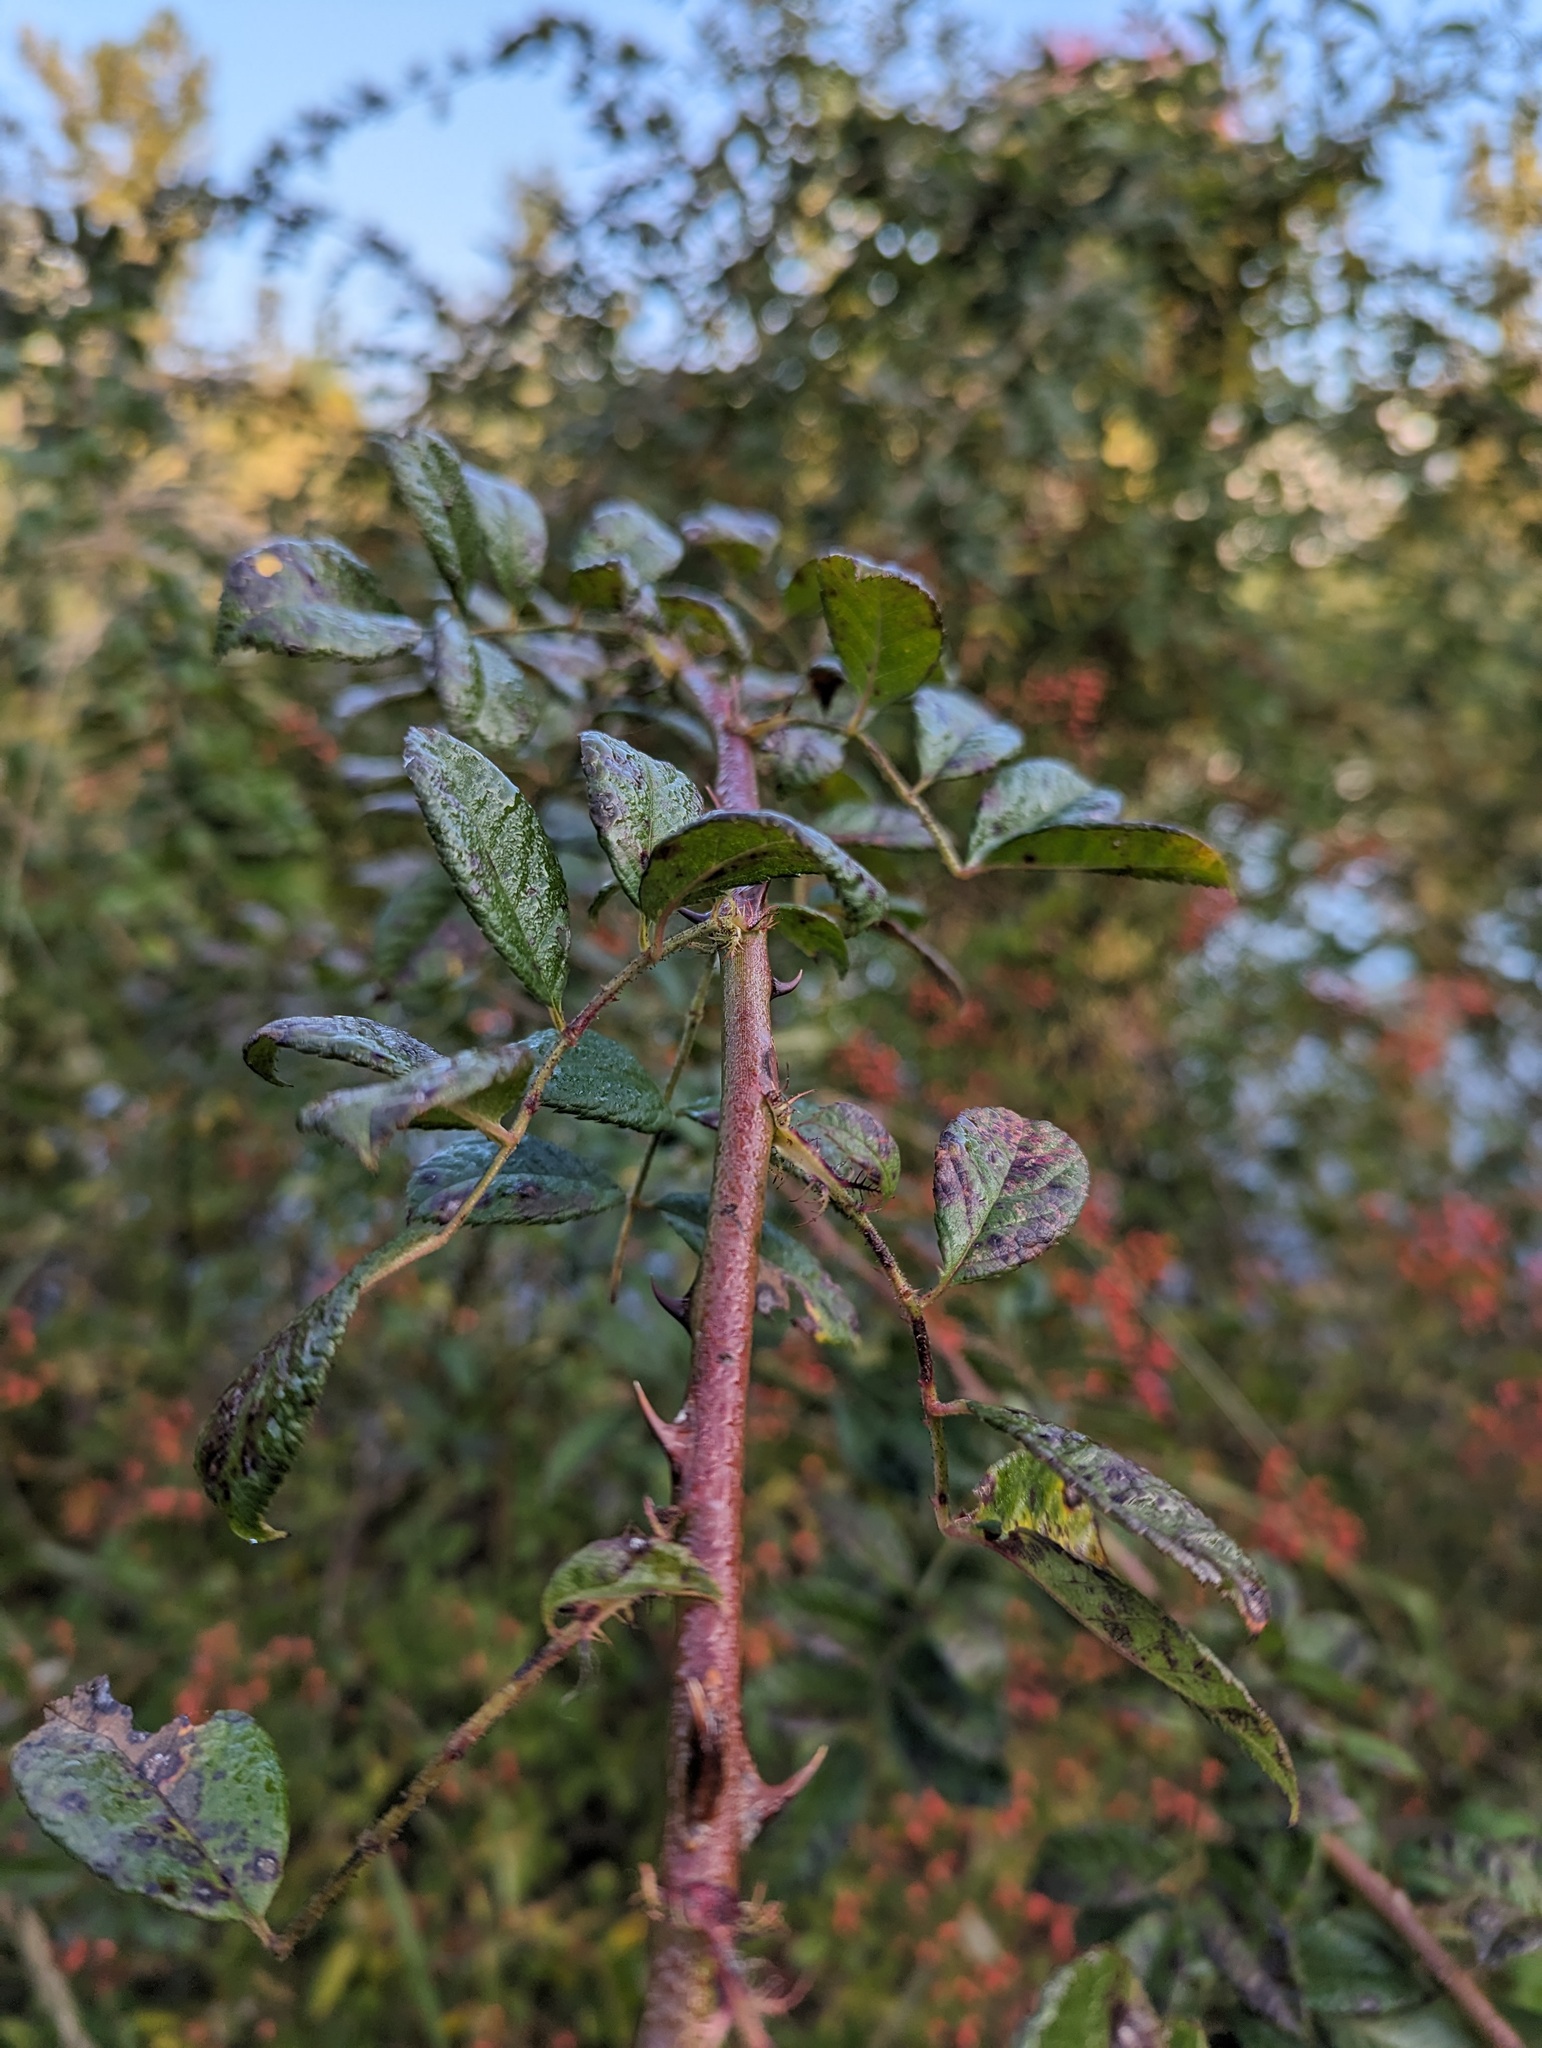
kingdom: Plantae
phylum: Tracheophyta
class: Magnoliopsida
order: Rosales
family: Rosaceae
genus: Rosa
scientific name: Rosa multiflora
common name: Multiflora rose
